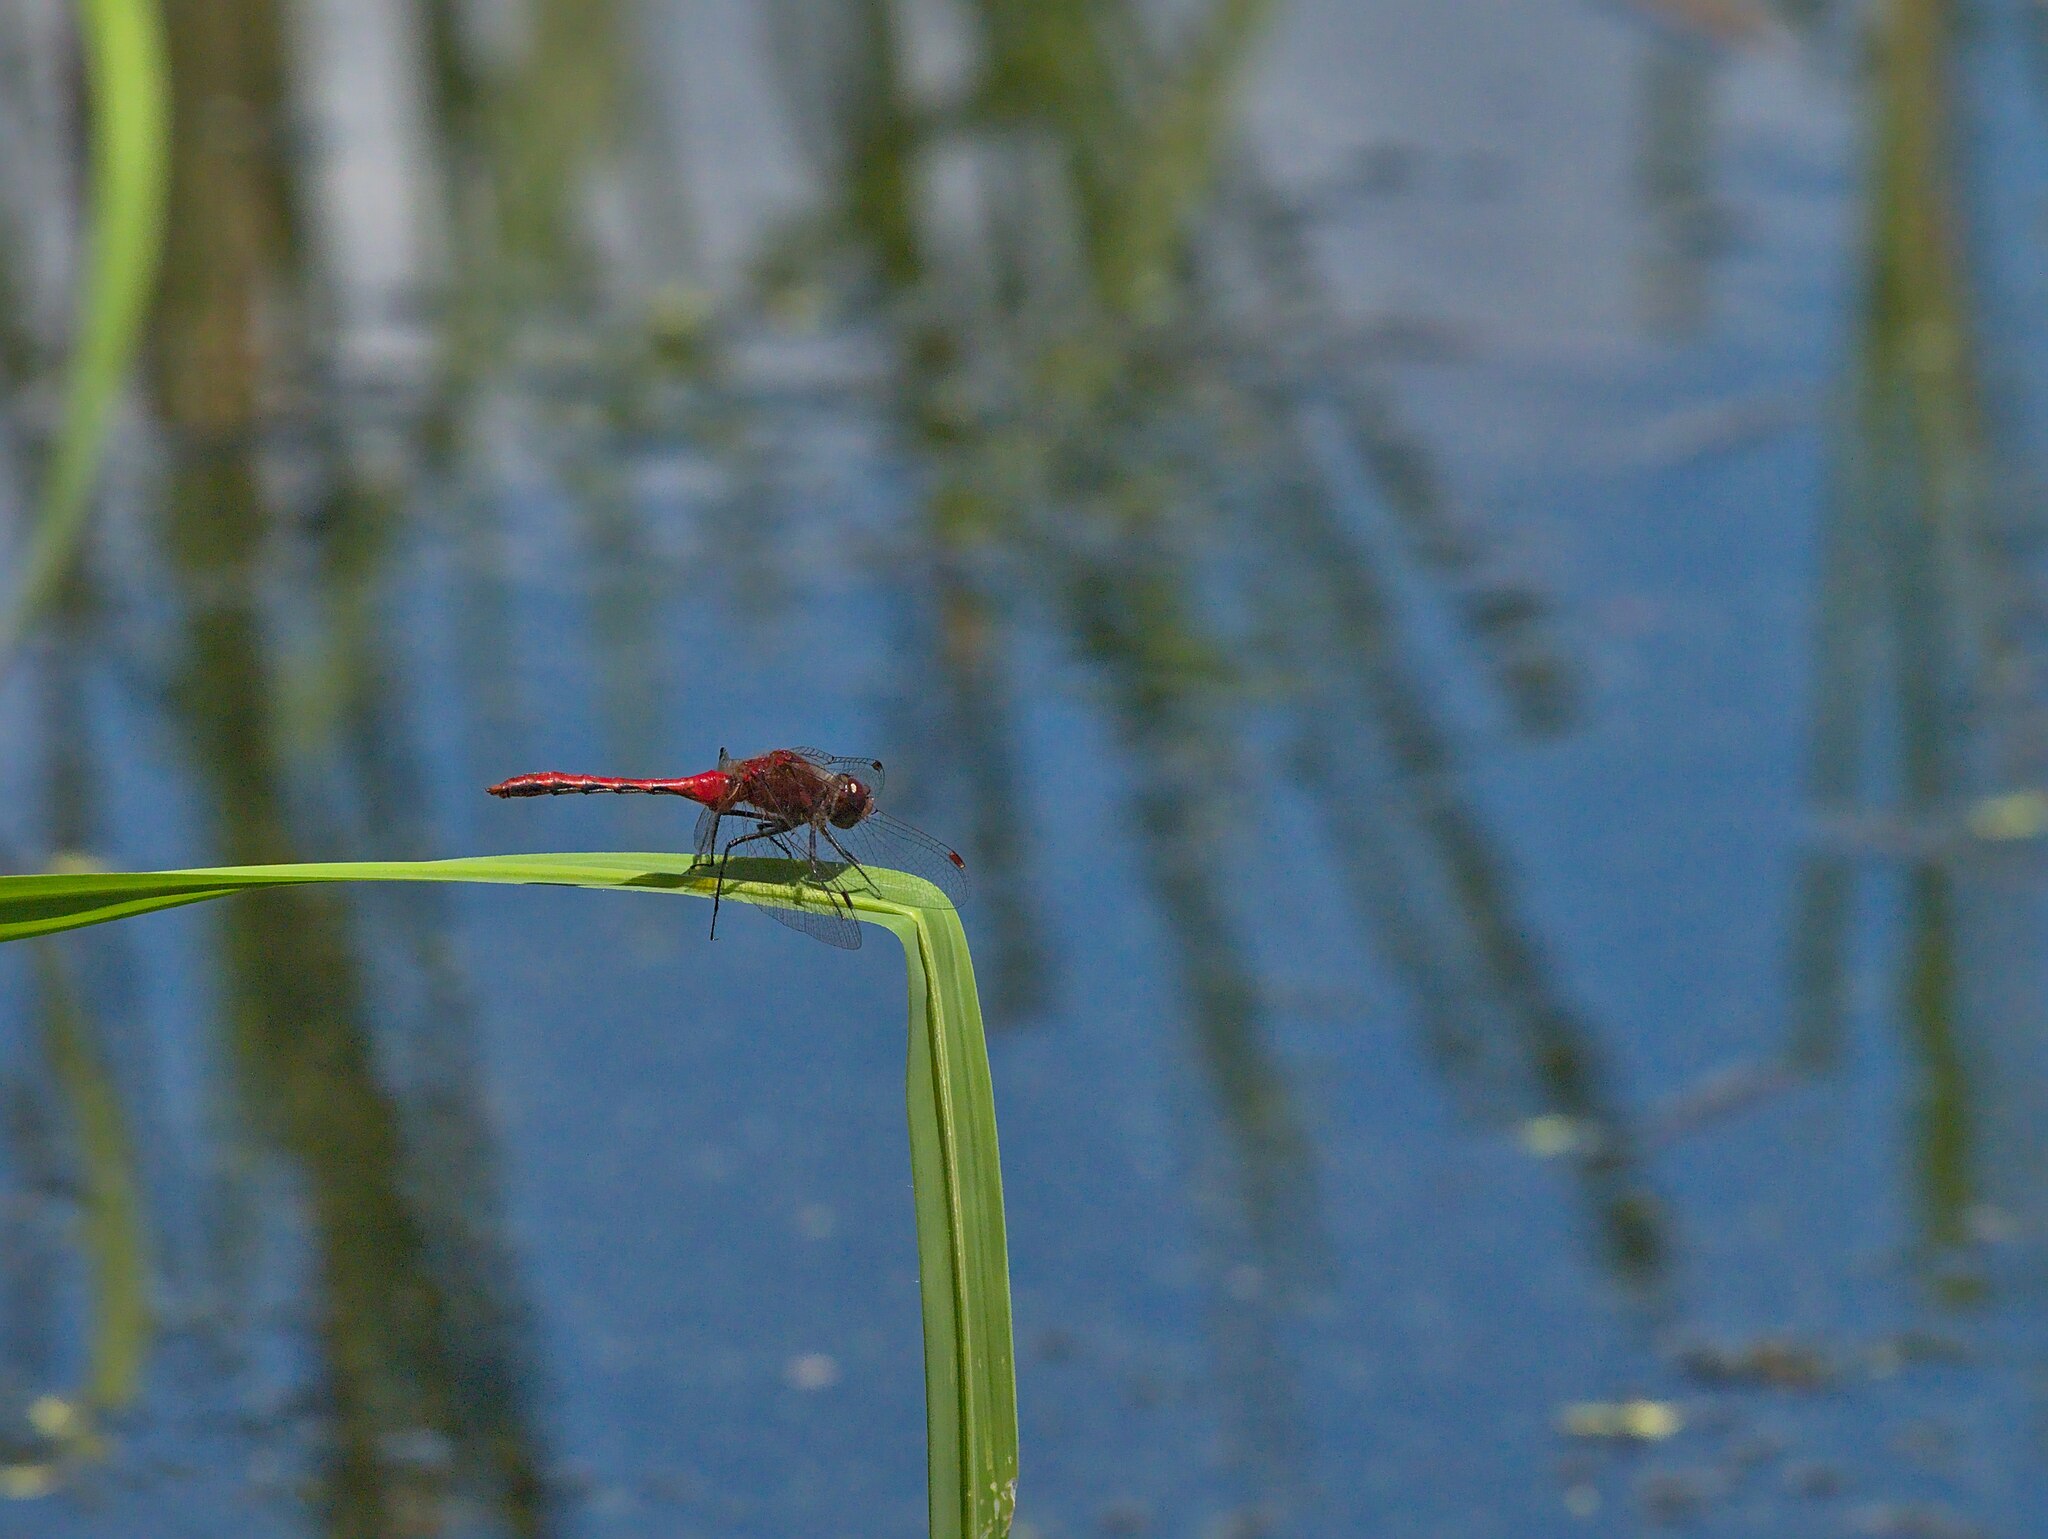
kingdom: Animalia
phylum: Arthropoda
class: Insecta
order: Odonata
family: Libellulidae
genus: Sympetrum
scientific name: Sympetrum internum
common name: Cherry-faced meadowhawk
